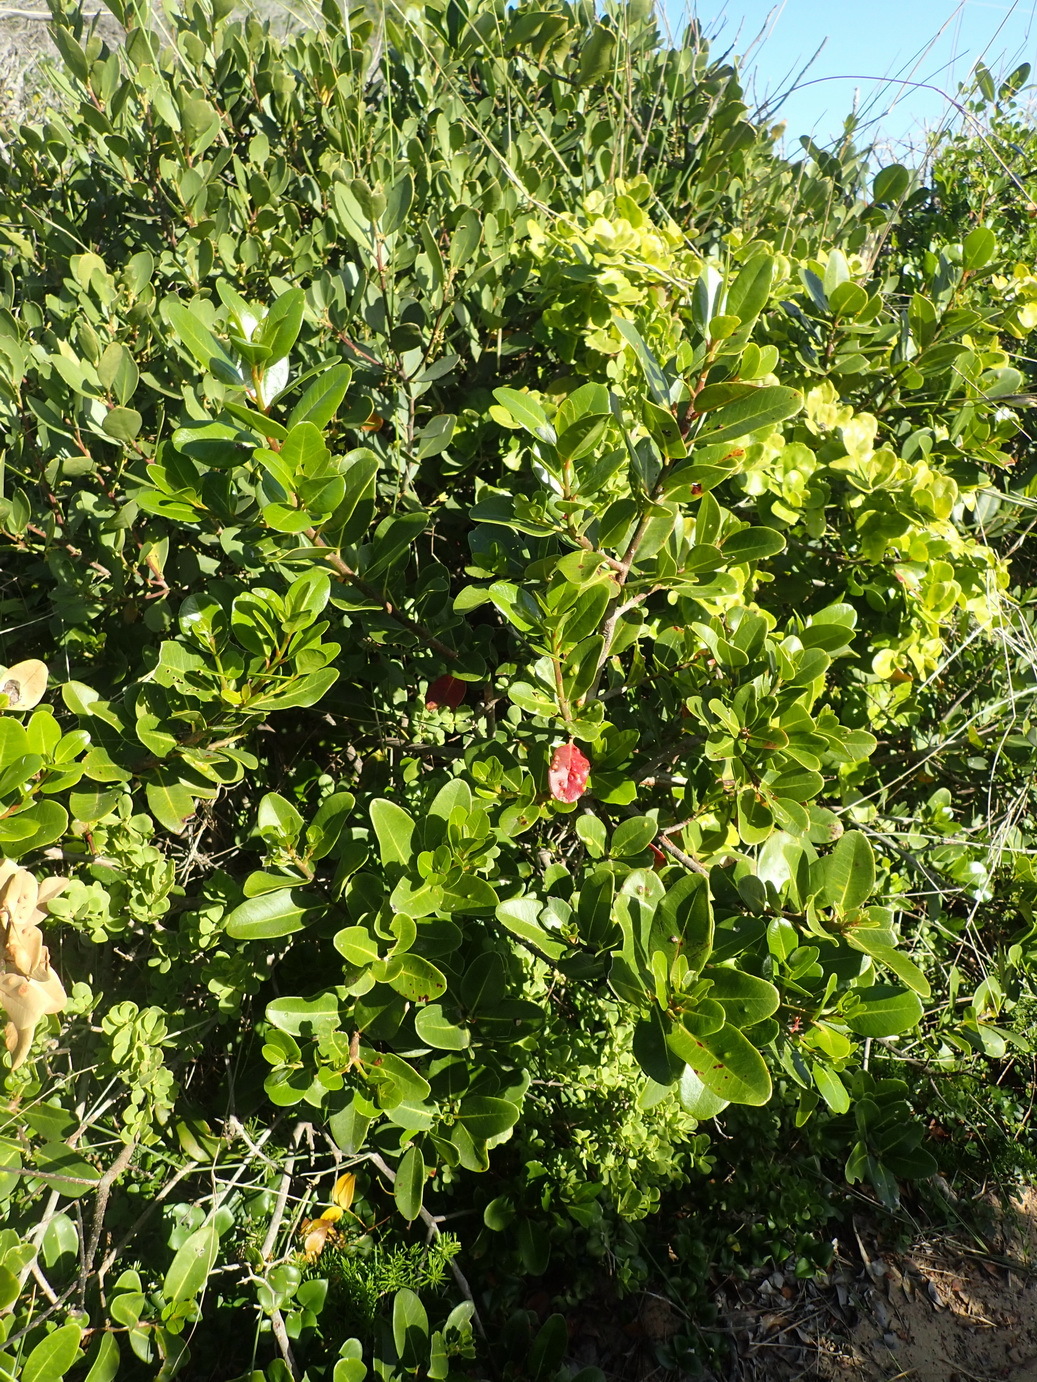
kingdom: Plantae
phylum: Tracheophyta
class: Magnoliopsida
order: Ericales
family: Sapotaceae
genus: Sideroxylon
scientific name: Sideroxylon inerme
